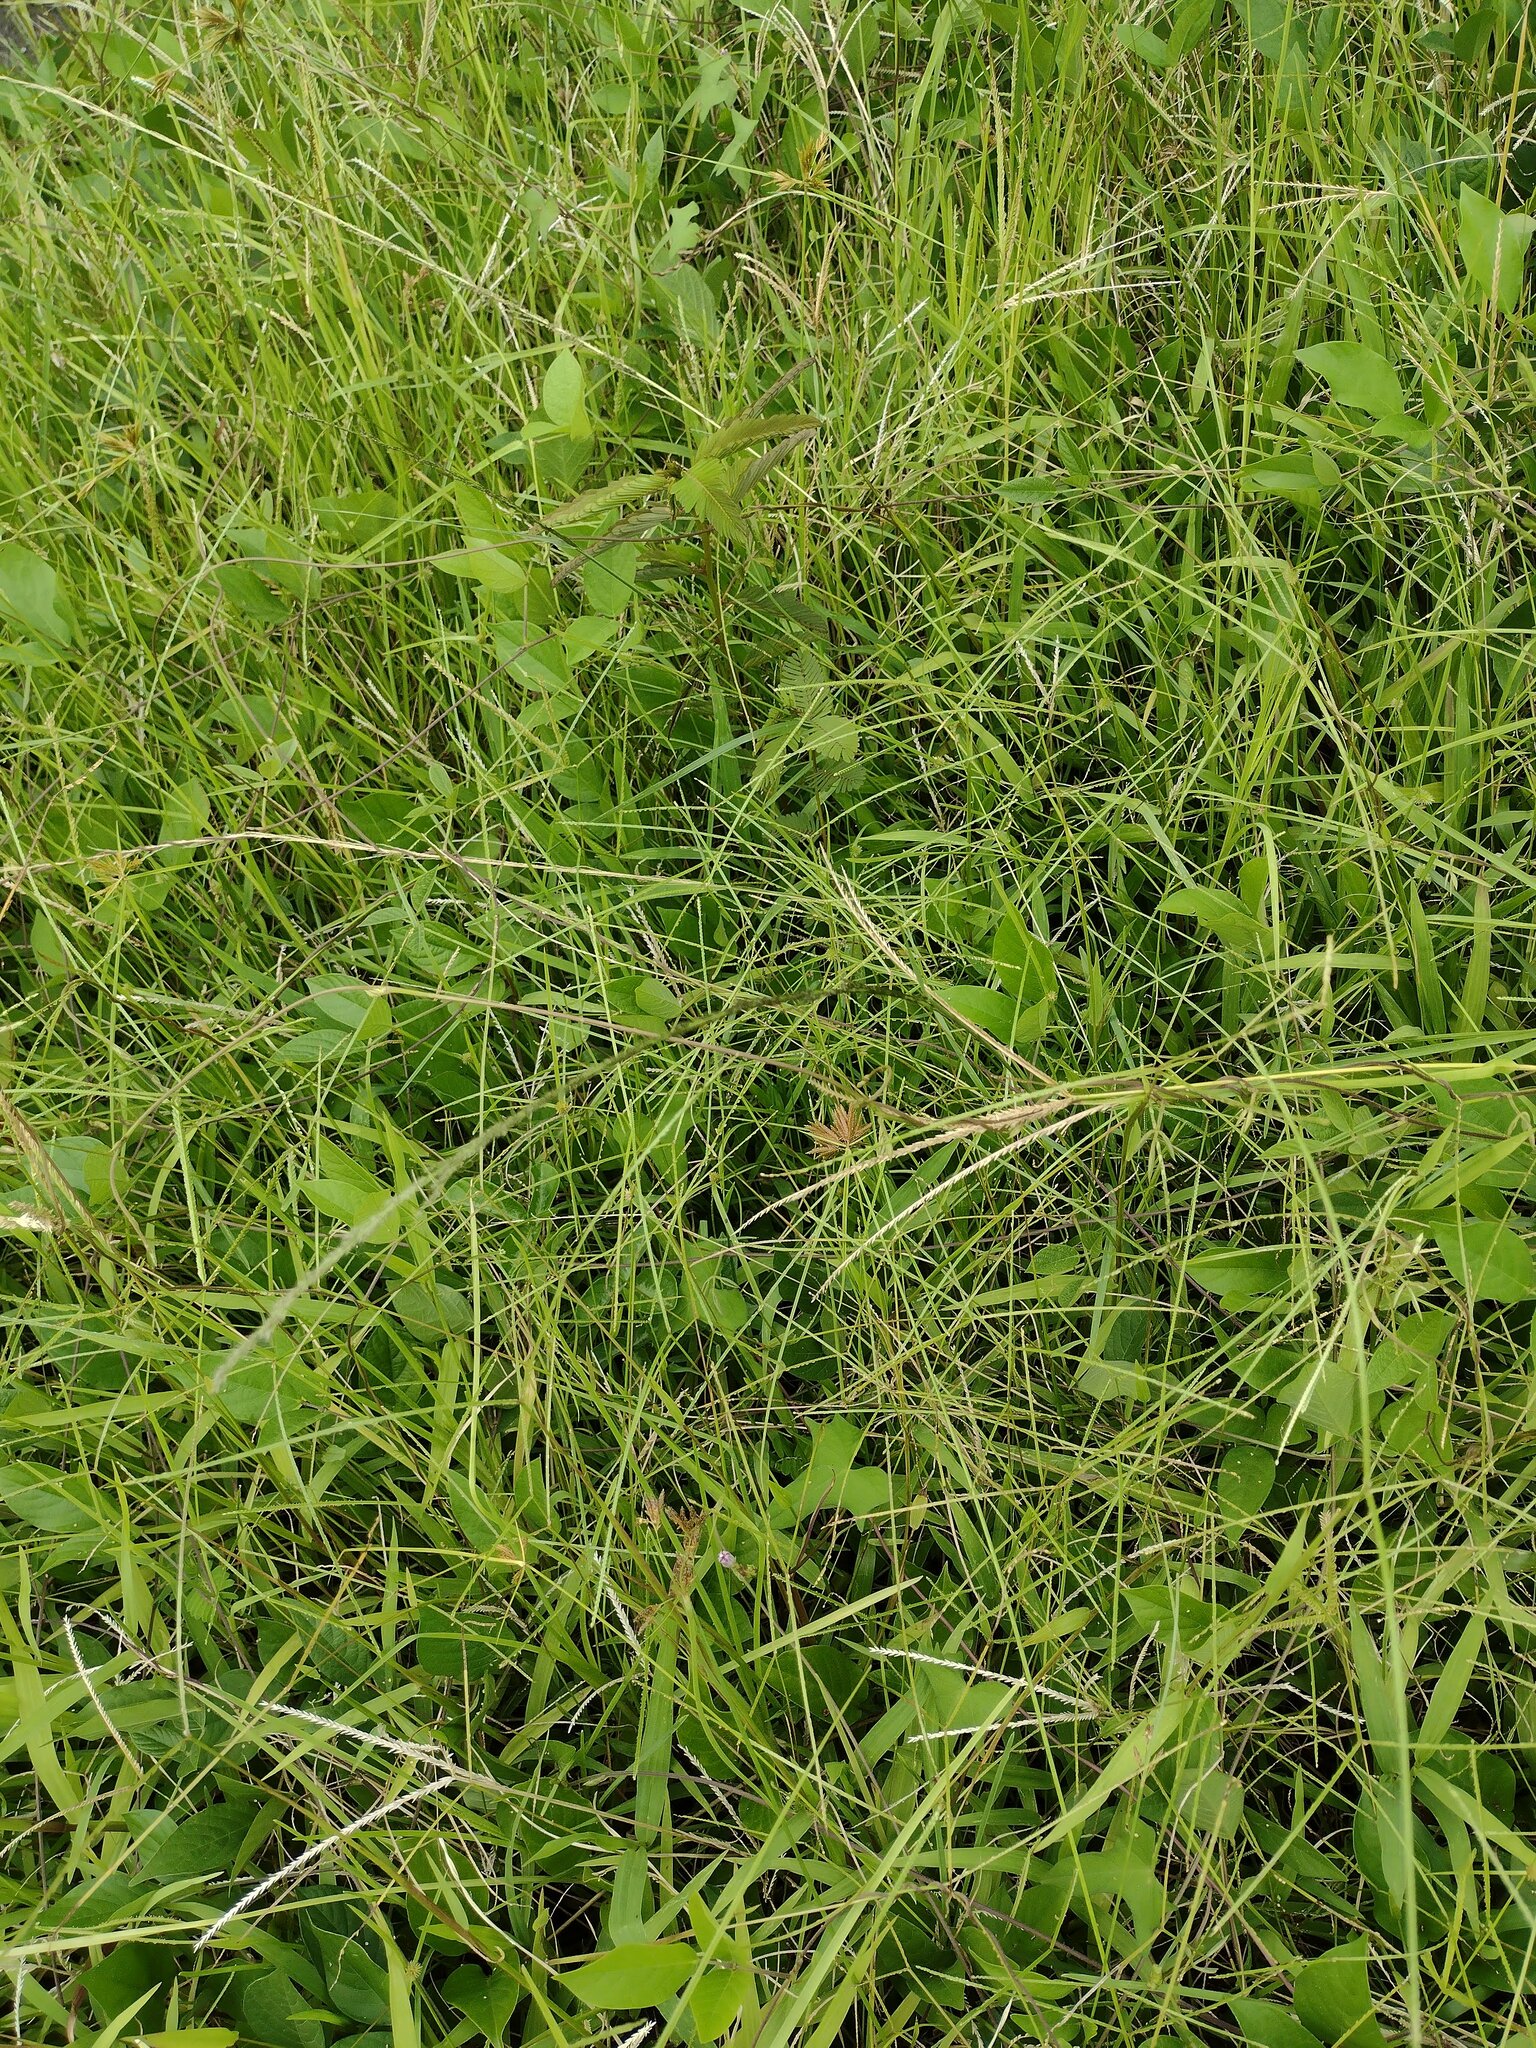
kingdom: Plantae
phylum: Tracheophyta
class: Liliopsida
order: Poales
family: Poaceae
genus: Eleusine
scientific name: Eleusine indica
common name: Yard-grass
